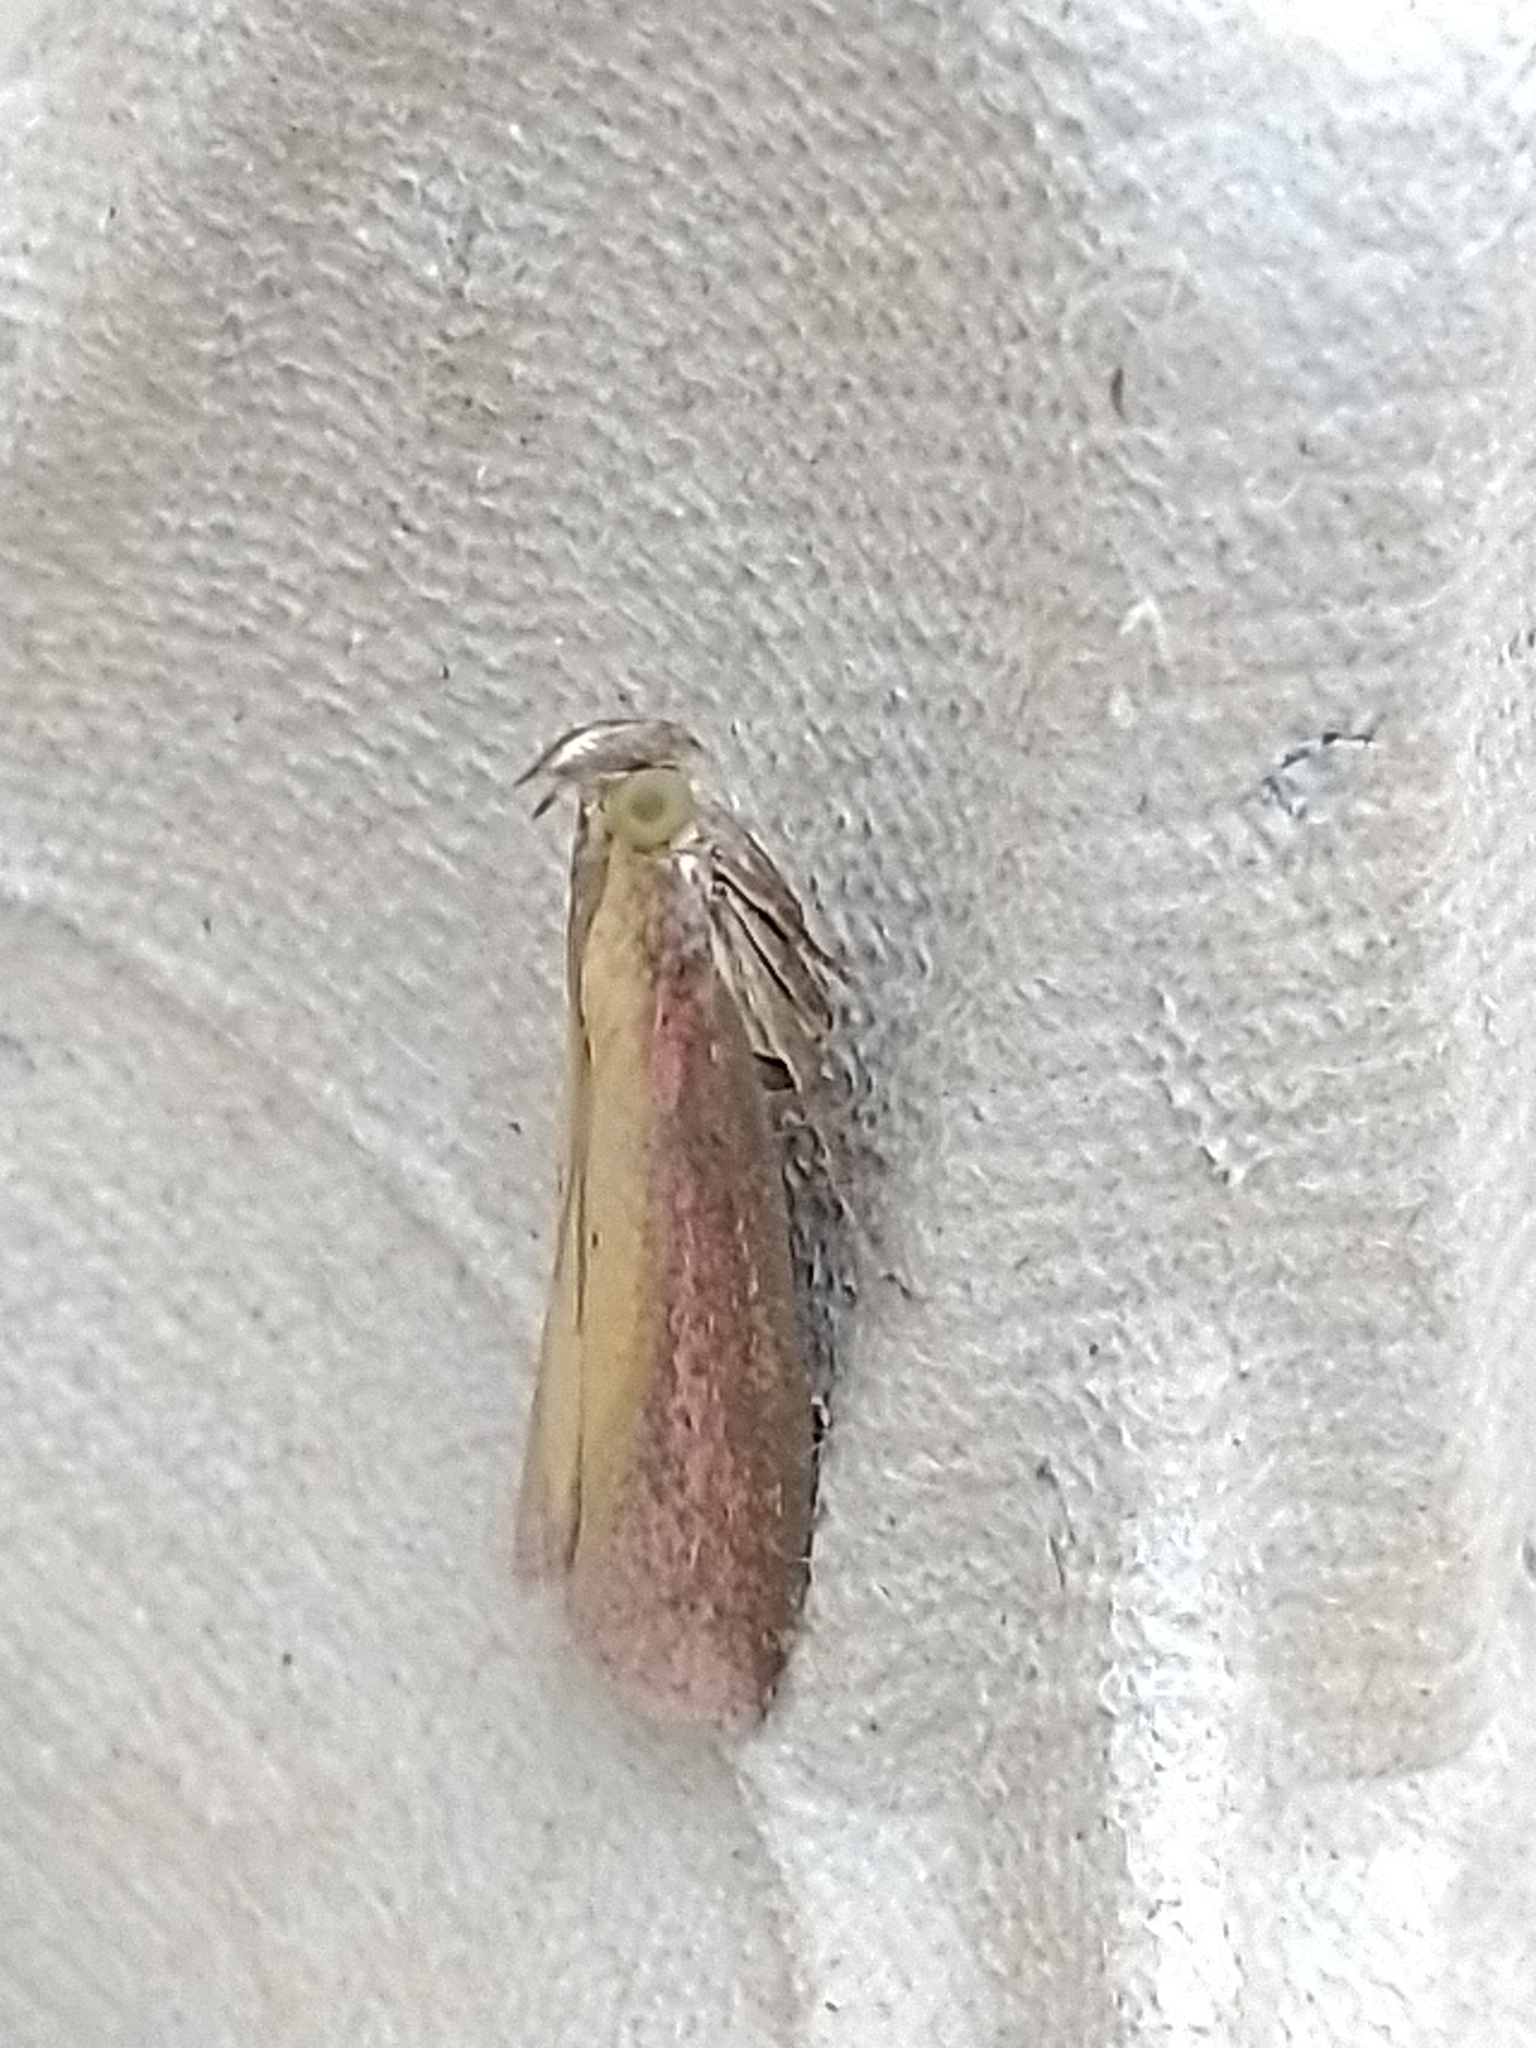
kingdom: Animalia
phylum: Arthropoda
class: Insecta
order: Lepidoptera
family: Pyralidae
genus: Oncocera
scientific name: Oncocera semirubella
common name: Rosy-striped knot-horn
